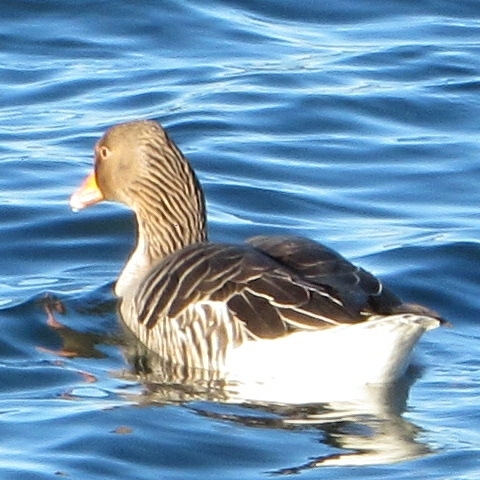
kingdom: Animalia
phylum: Chordata
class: Aves
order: Anseriformes
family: Anatidae
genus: Anser
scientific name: Anser anser
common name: Greylag goose
